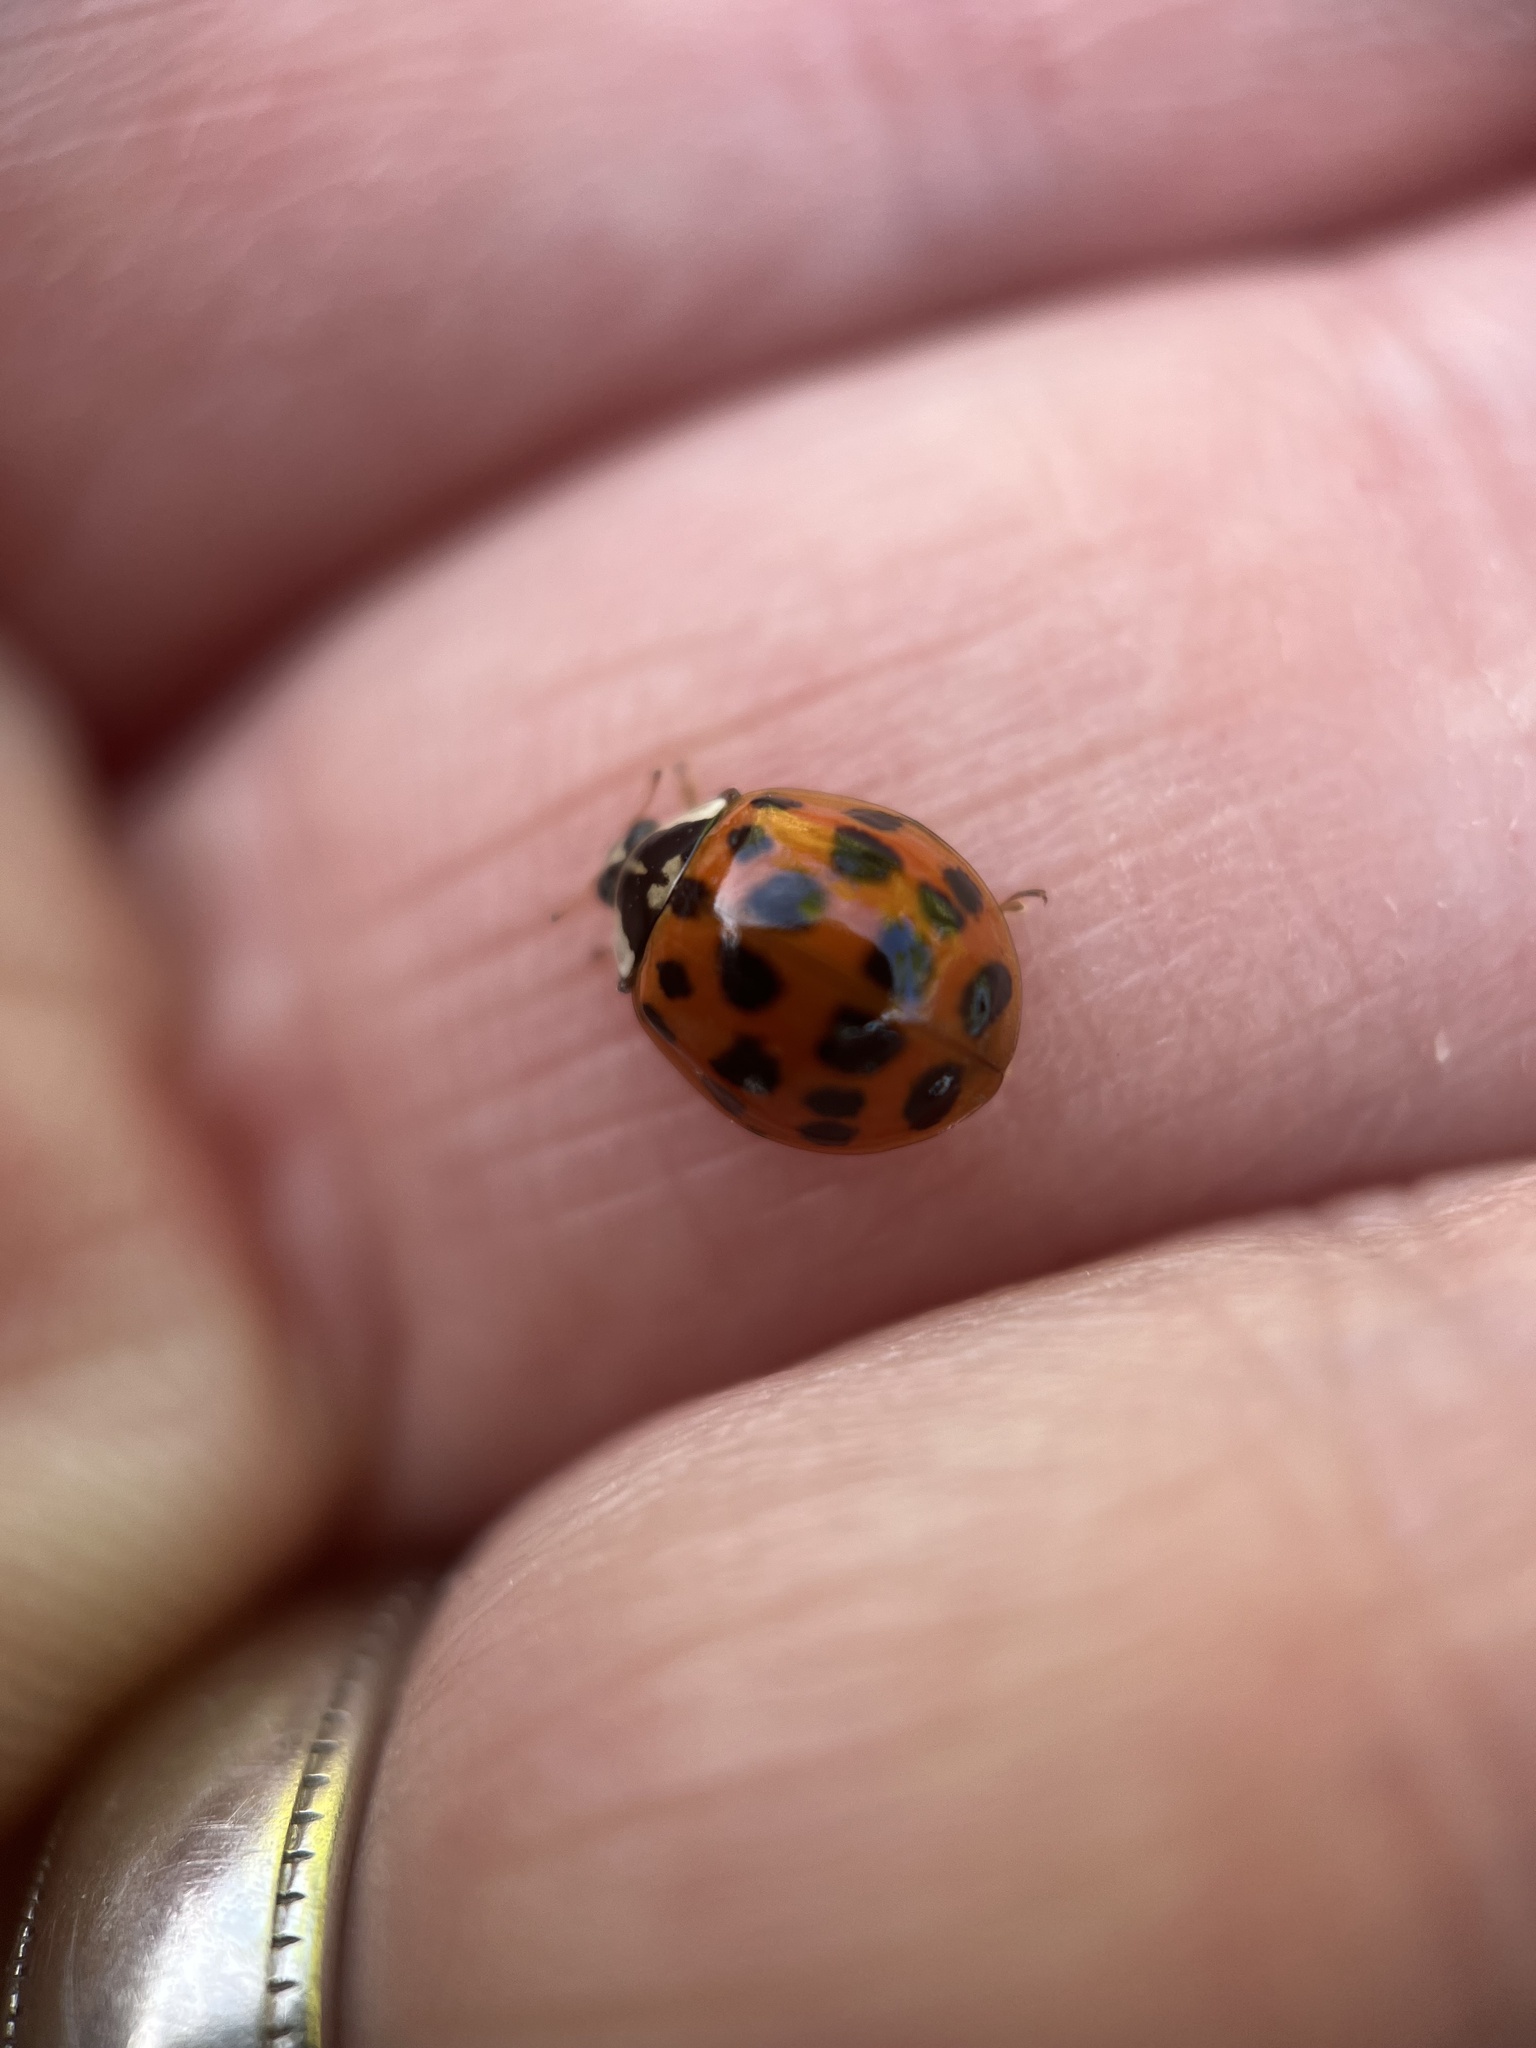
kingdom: Animalia
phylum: Arthropoda
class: Insecta
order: Coleoptera
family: Coccinellidae
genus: Harmonia
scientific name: Harmonia axyridis
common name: Harlequin ladybird
